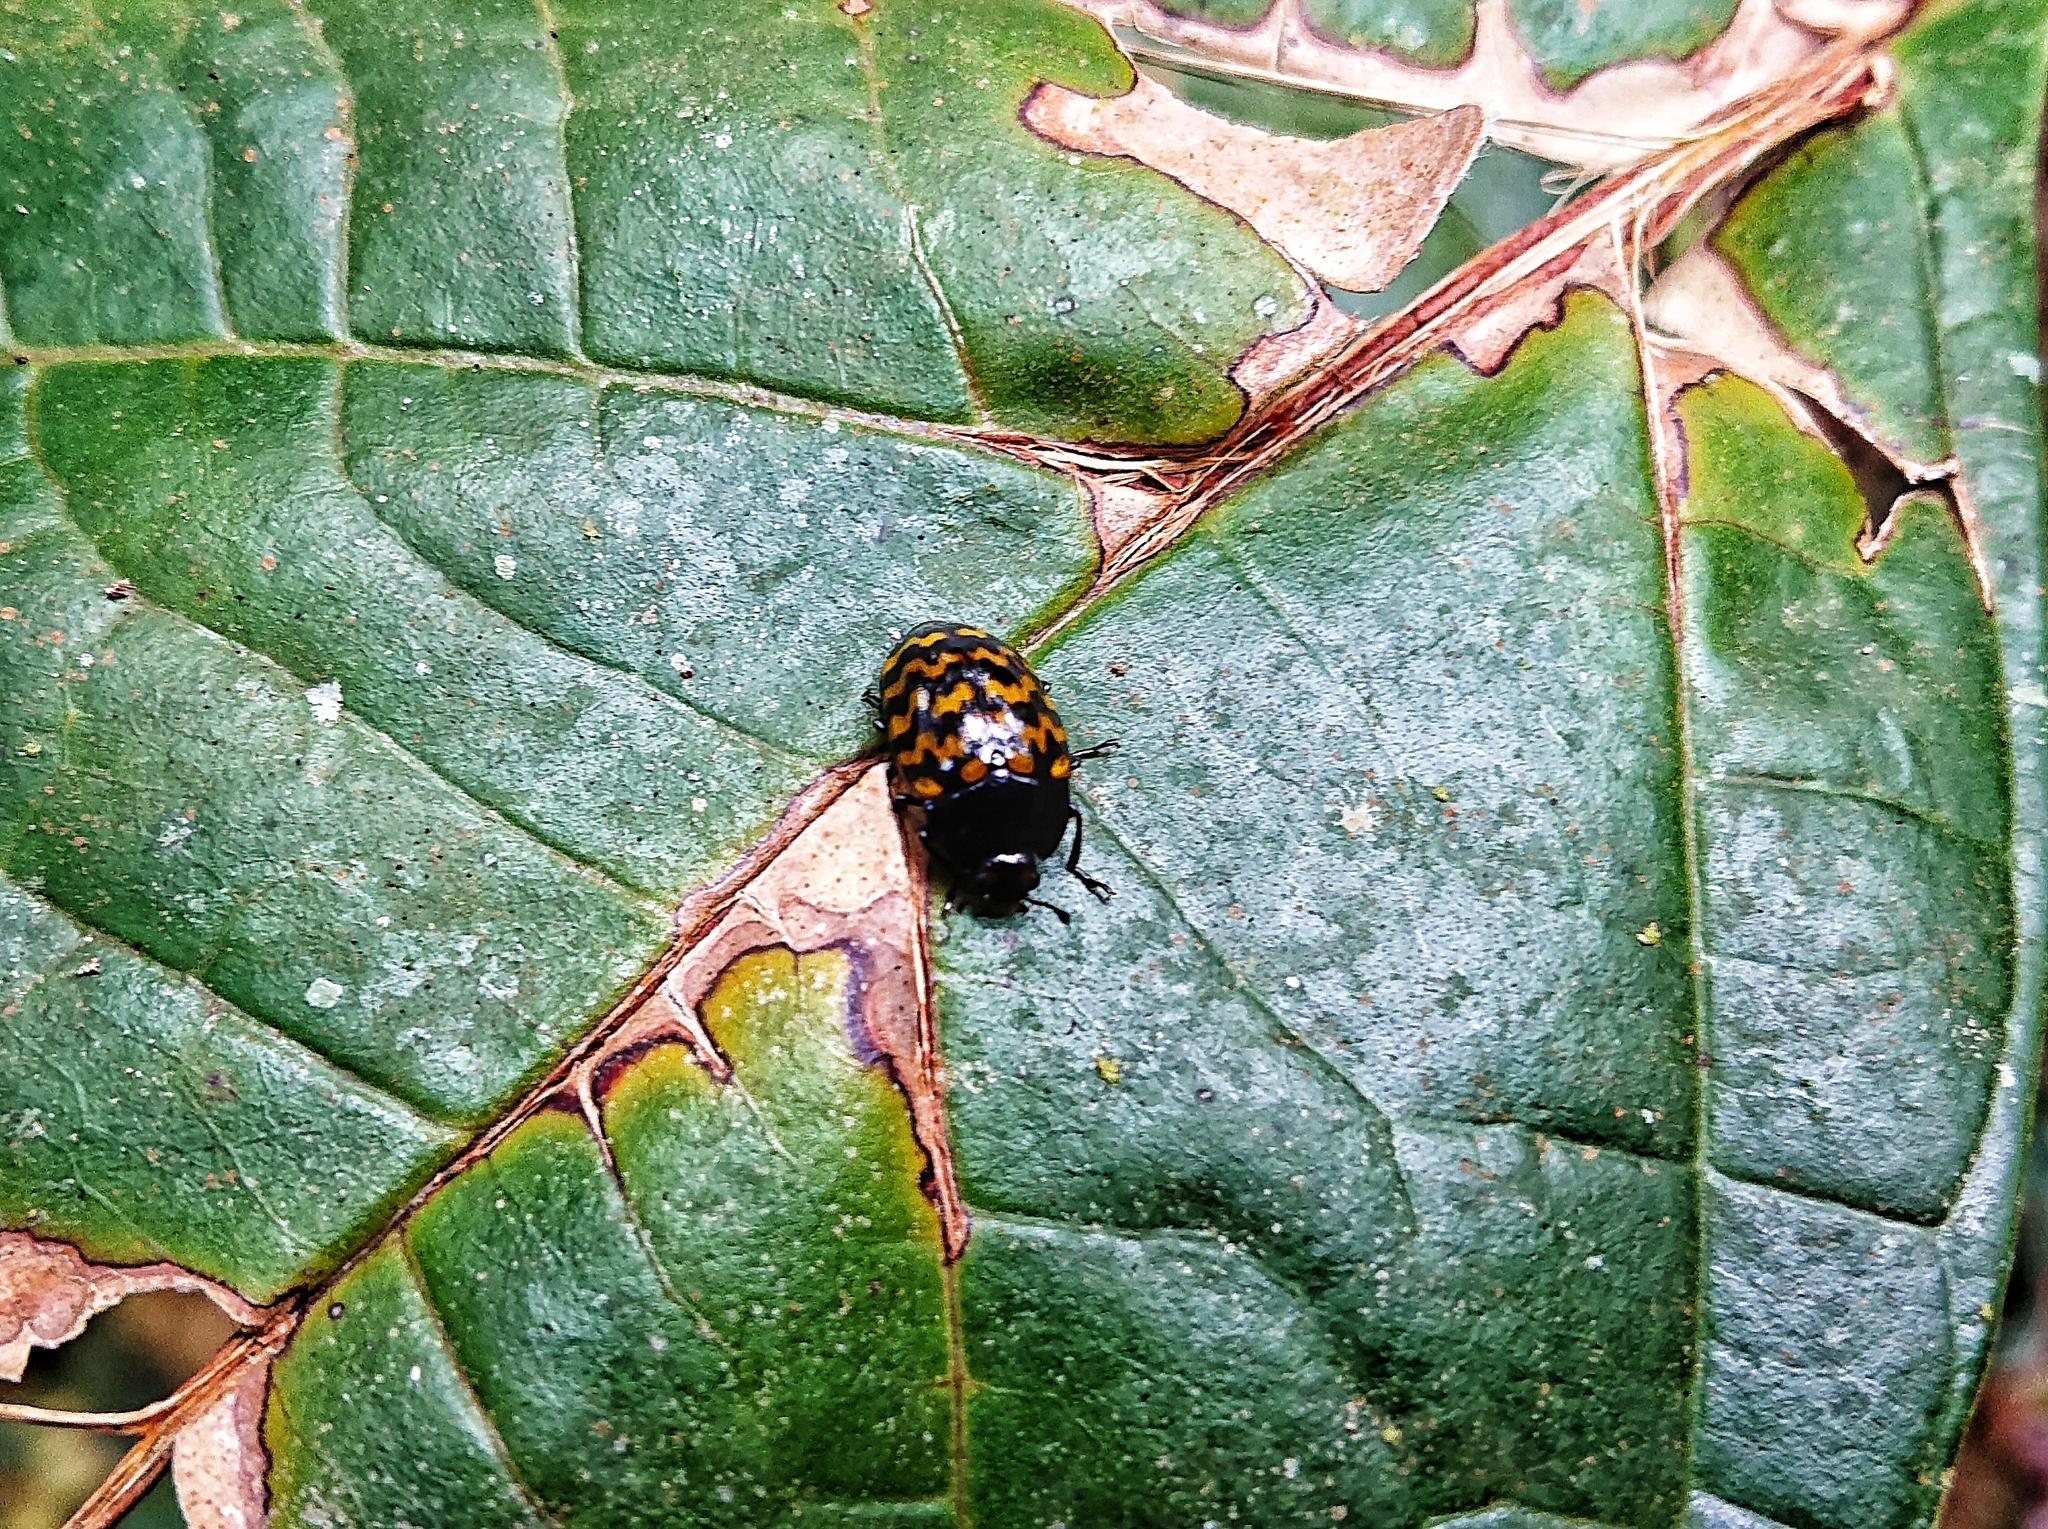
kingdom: Animalia
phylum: Arthropoda
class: Insecta
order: Coleoptera
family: Erotylidae
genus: Iphiclus
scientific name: Iphiclus
